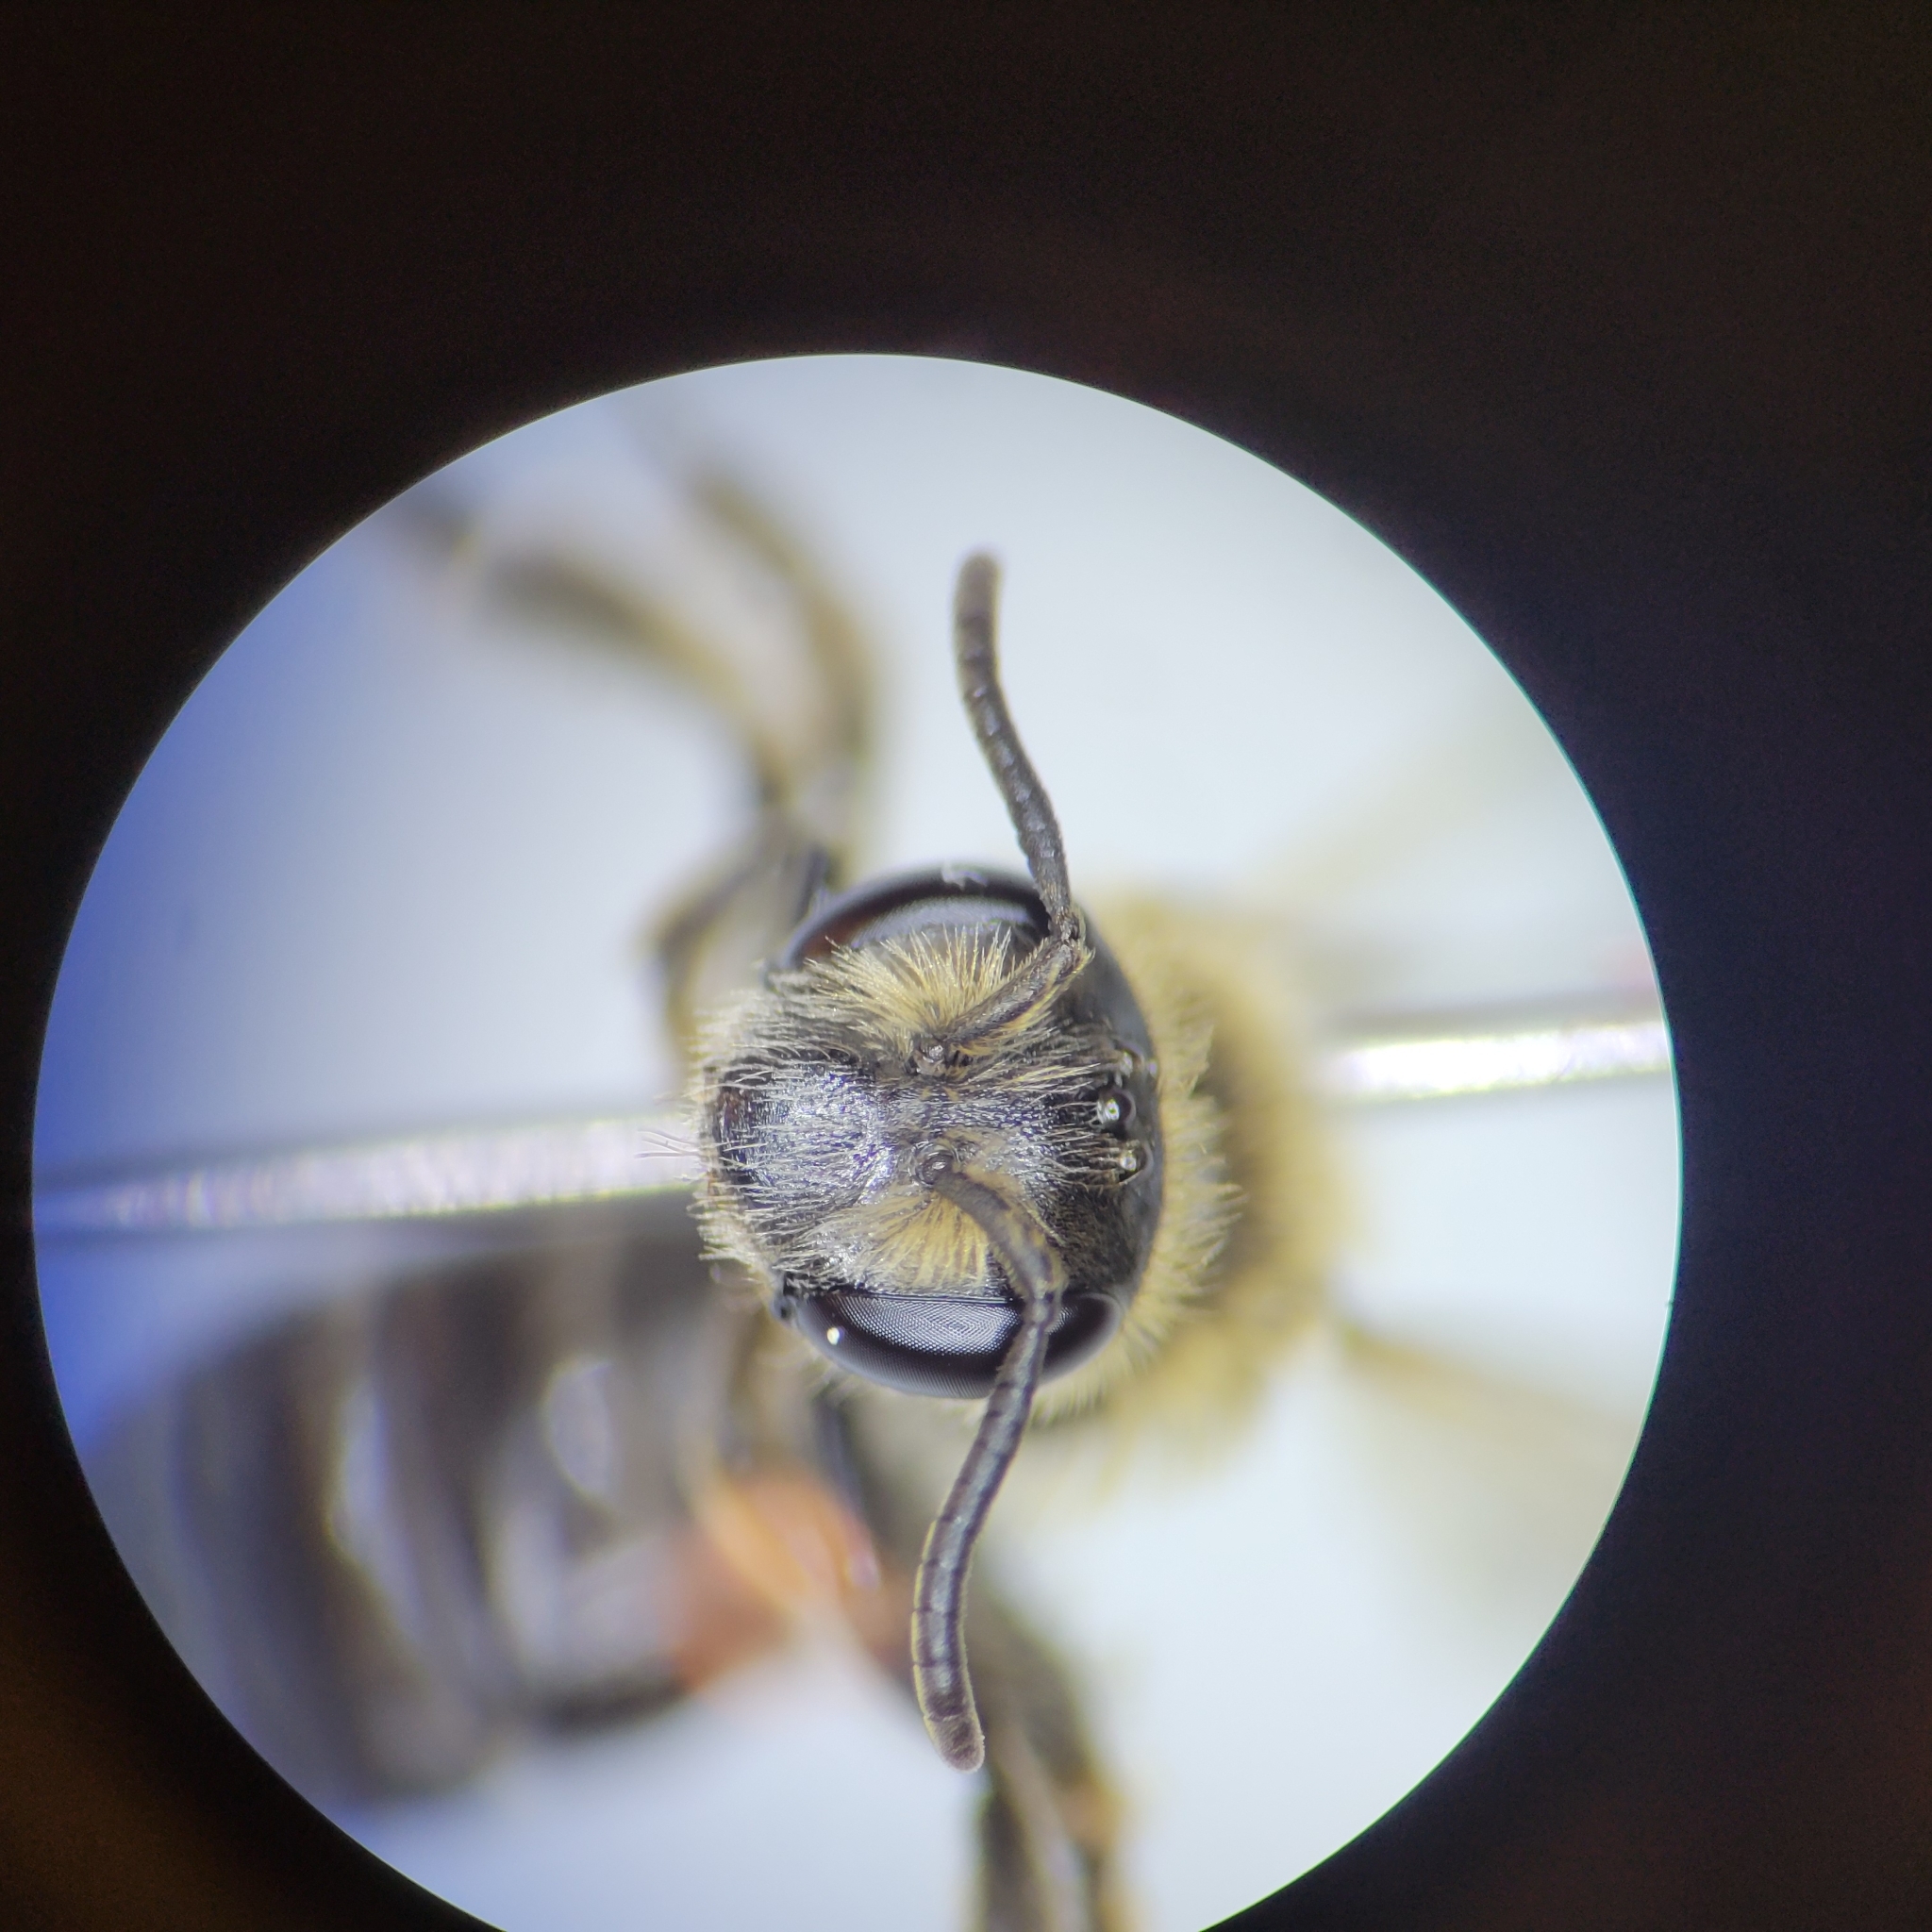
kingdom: Animalia
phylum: Arthropoda
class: Insecta
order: Hymenoptera
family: Andrenidae
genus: Andrena
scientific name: Andrena nasonii
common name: Nason's mining bee
